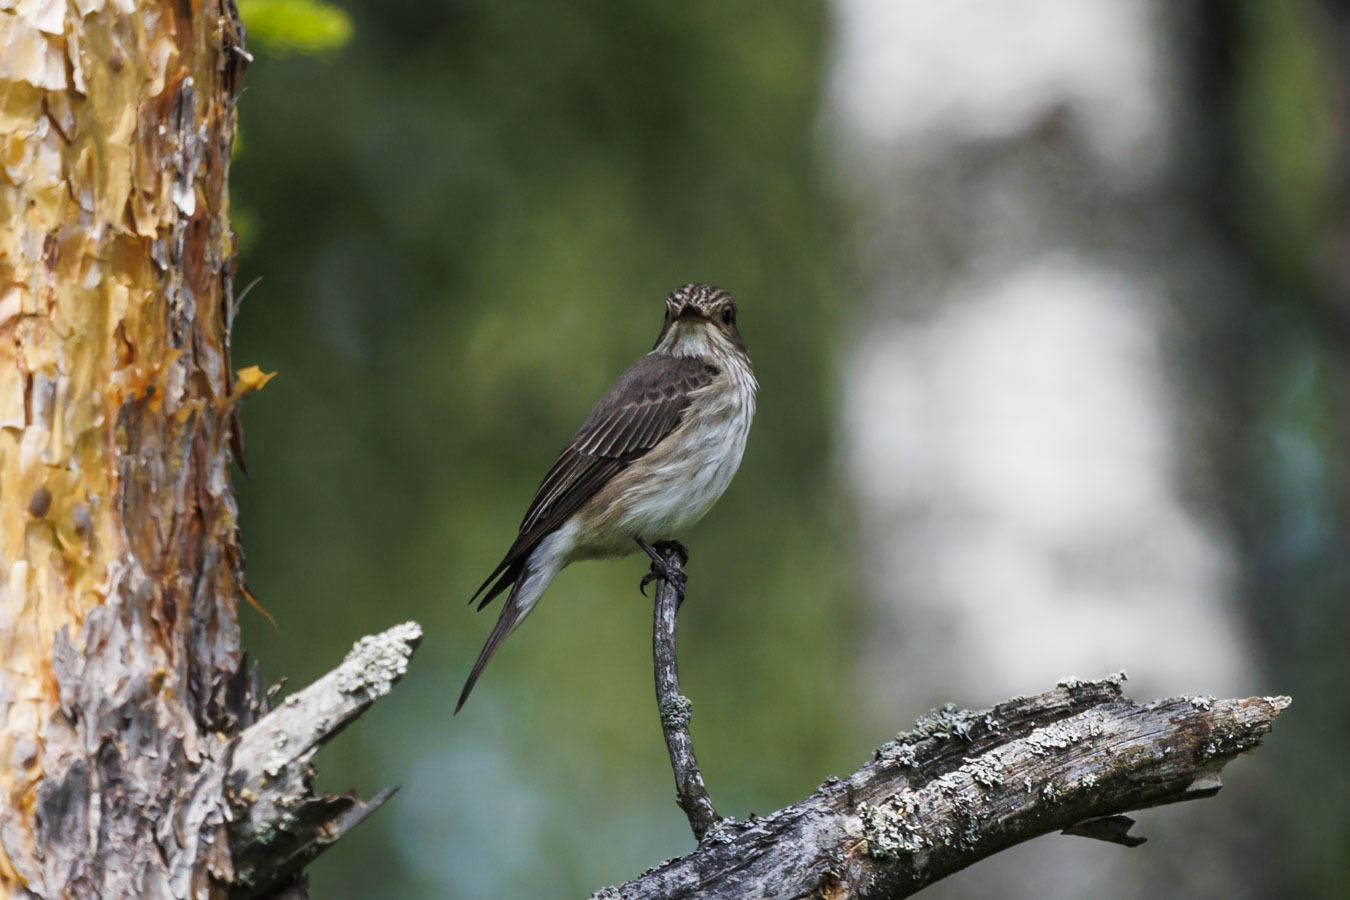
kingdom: Animalia
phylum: Chordata
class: Aves
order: Passeriformes
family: Muscicapidae
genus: Muscicapa
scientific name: Muscicapa striata
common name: Spotted flycatcher
